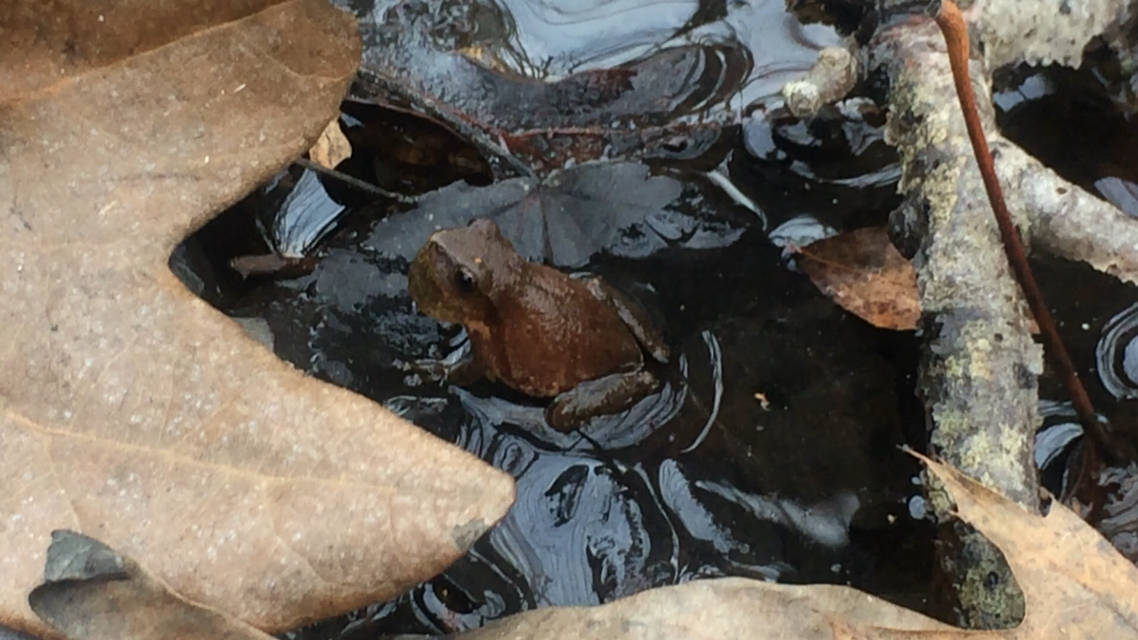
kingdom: Animalia
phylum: Chordata
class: Amphibia
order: Anura
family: Hylidae
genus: Pseudacris
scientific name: Pseudacris crucifer
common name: Spring peeper
